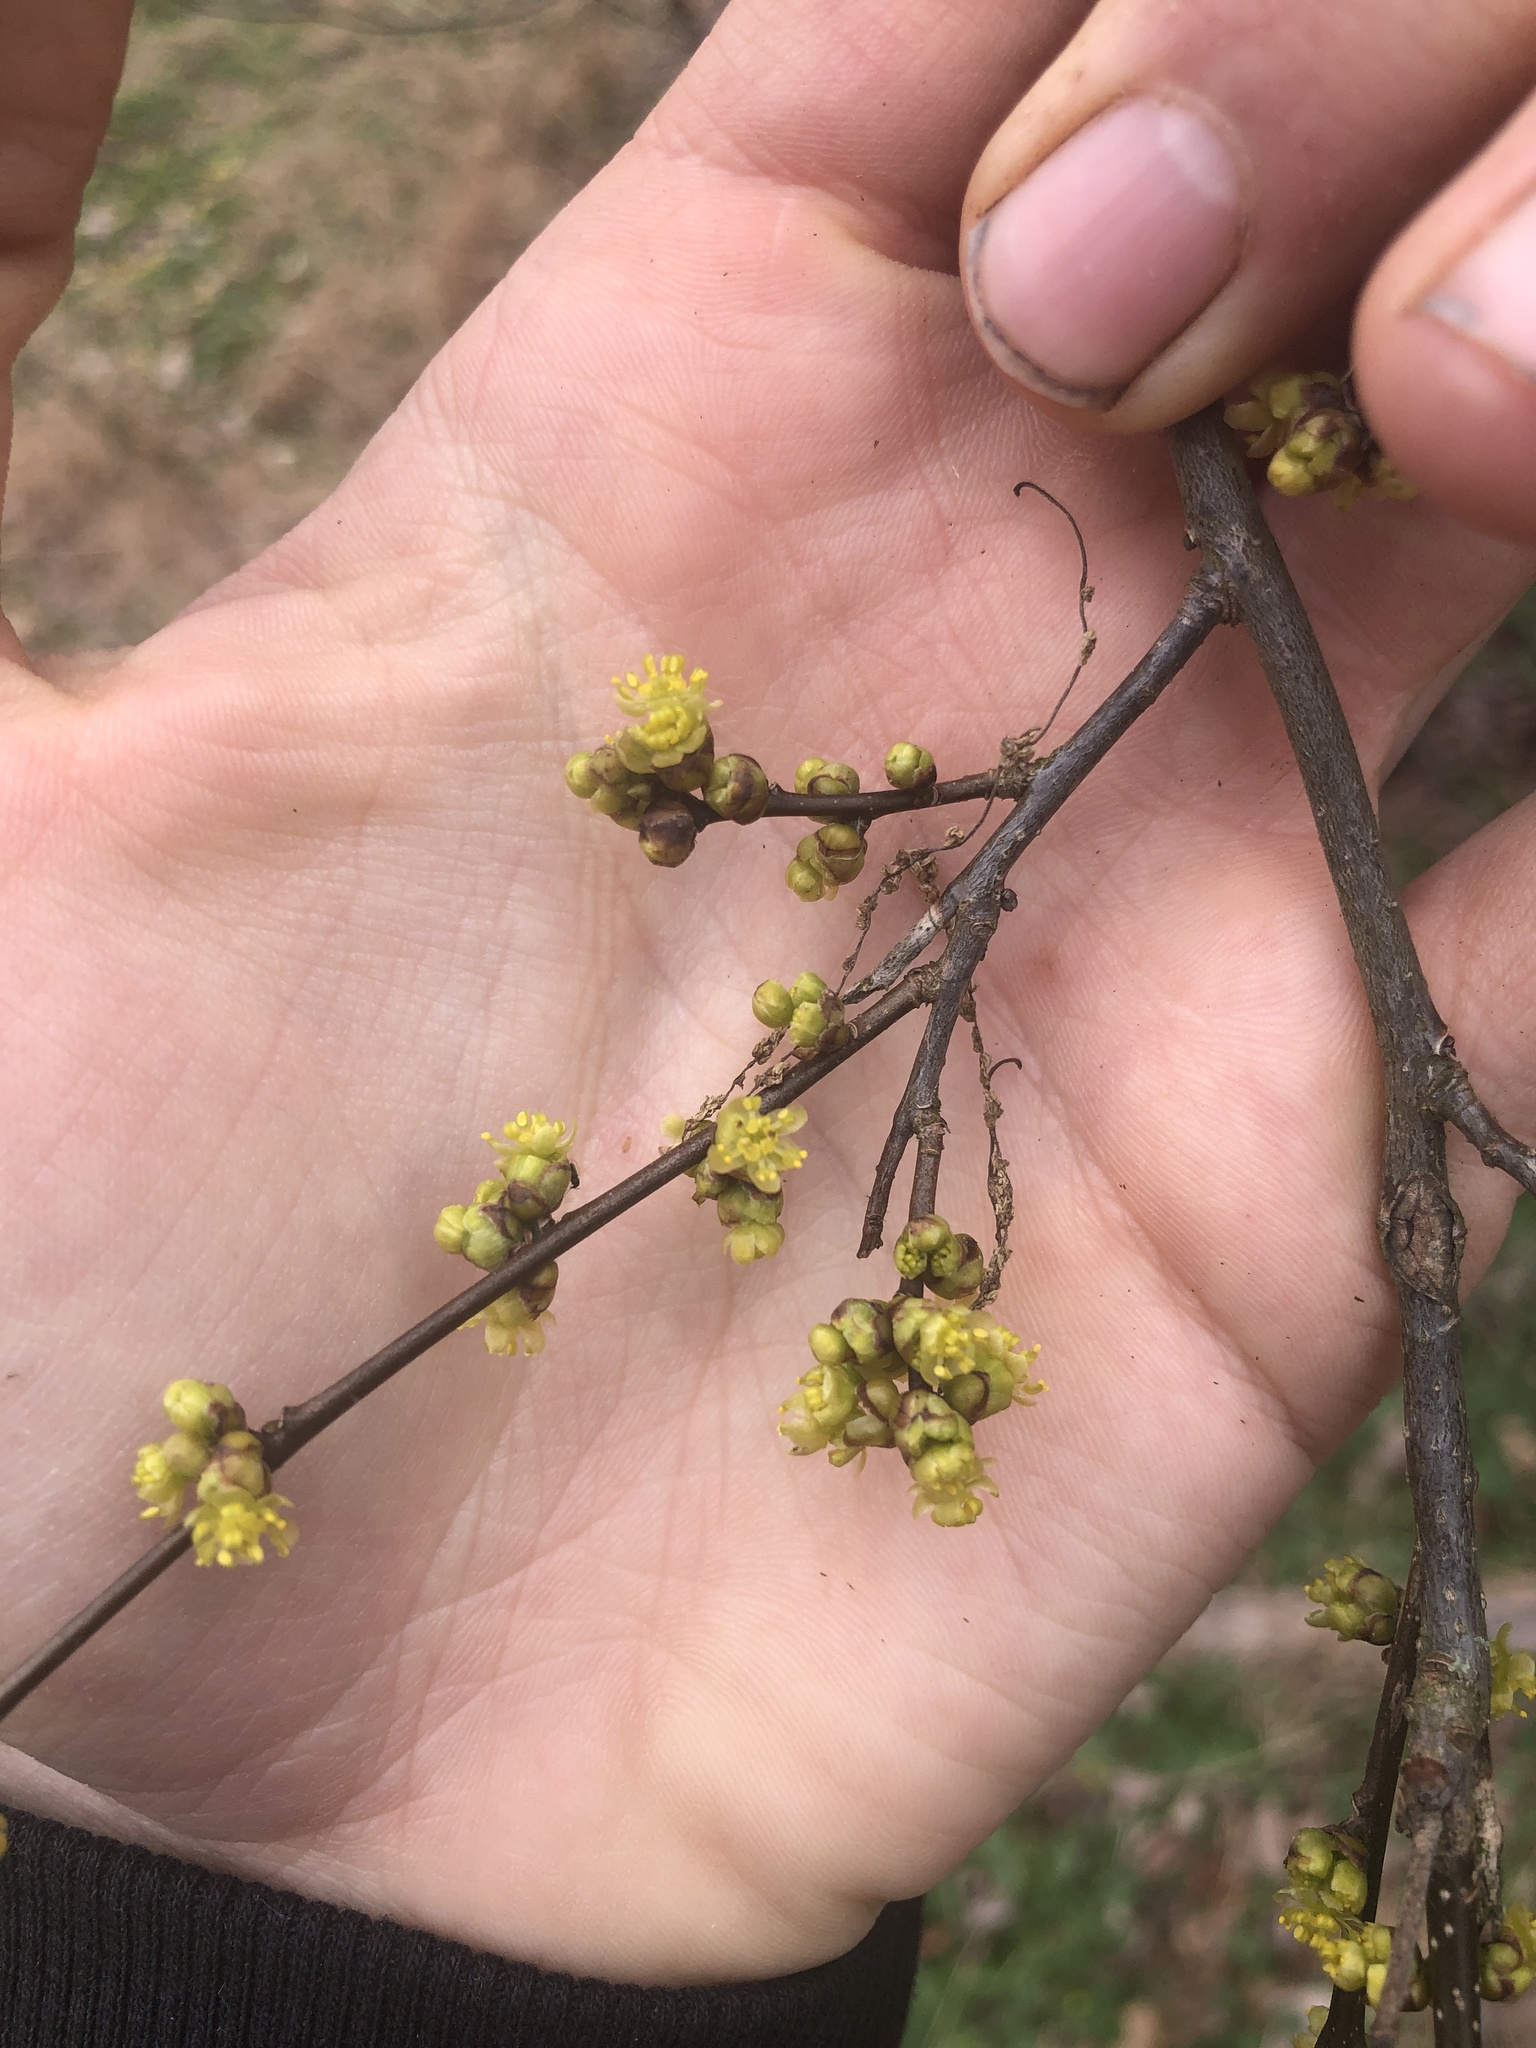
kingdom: Plantae
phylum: Tracheophyta
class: Magnoliopsida
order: Laurales
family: Lauraceae
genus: Lindera
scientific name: Lindera benzoin
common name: Spicebush
